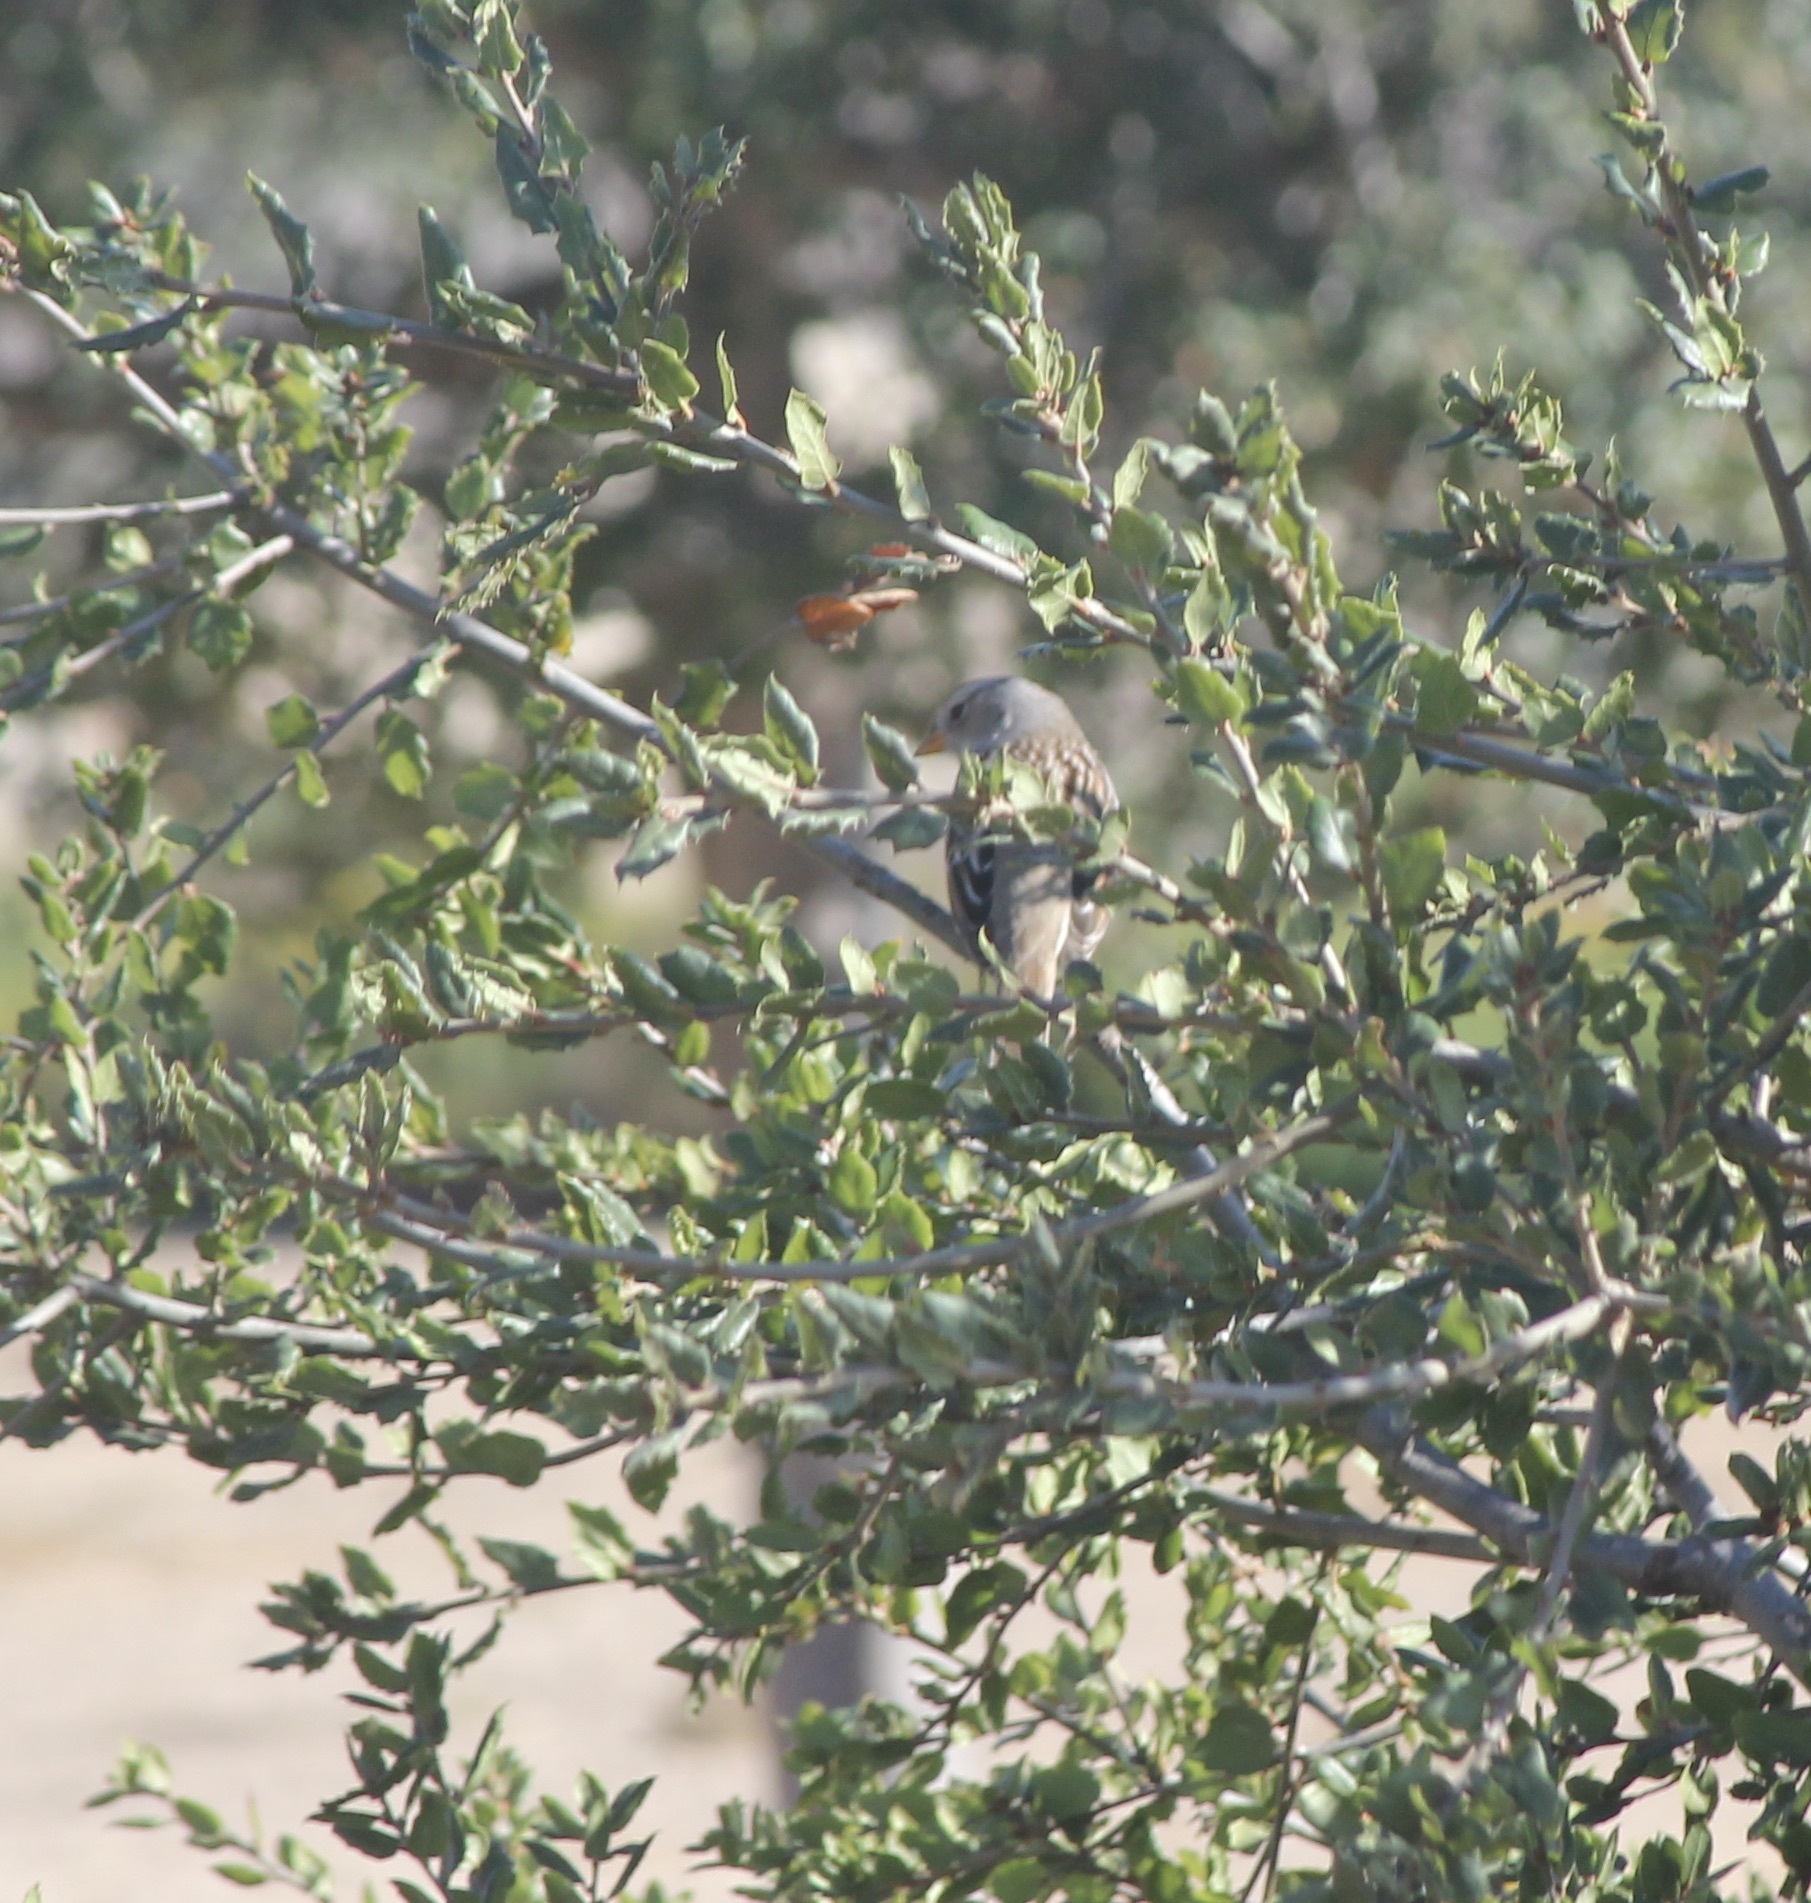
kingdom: Animalia
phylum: Chordata
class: Aves
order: Passeriformes
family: Passerellidae
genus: Zonotrichia
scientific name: Zonotrichia leucophrys
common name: White-crowned sparrow
